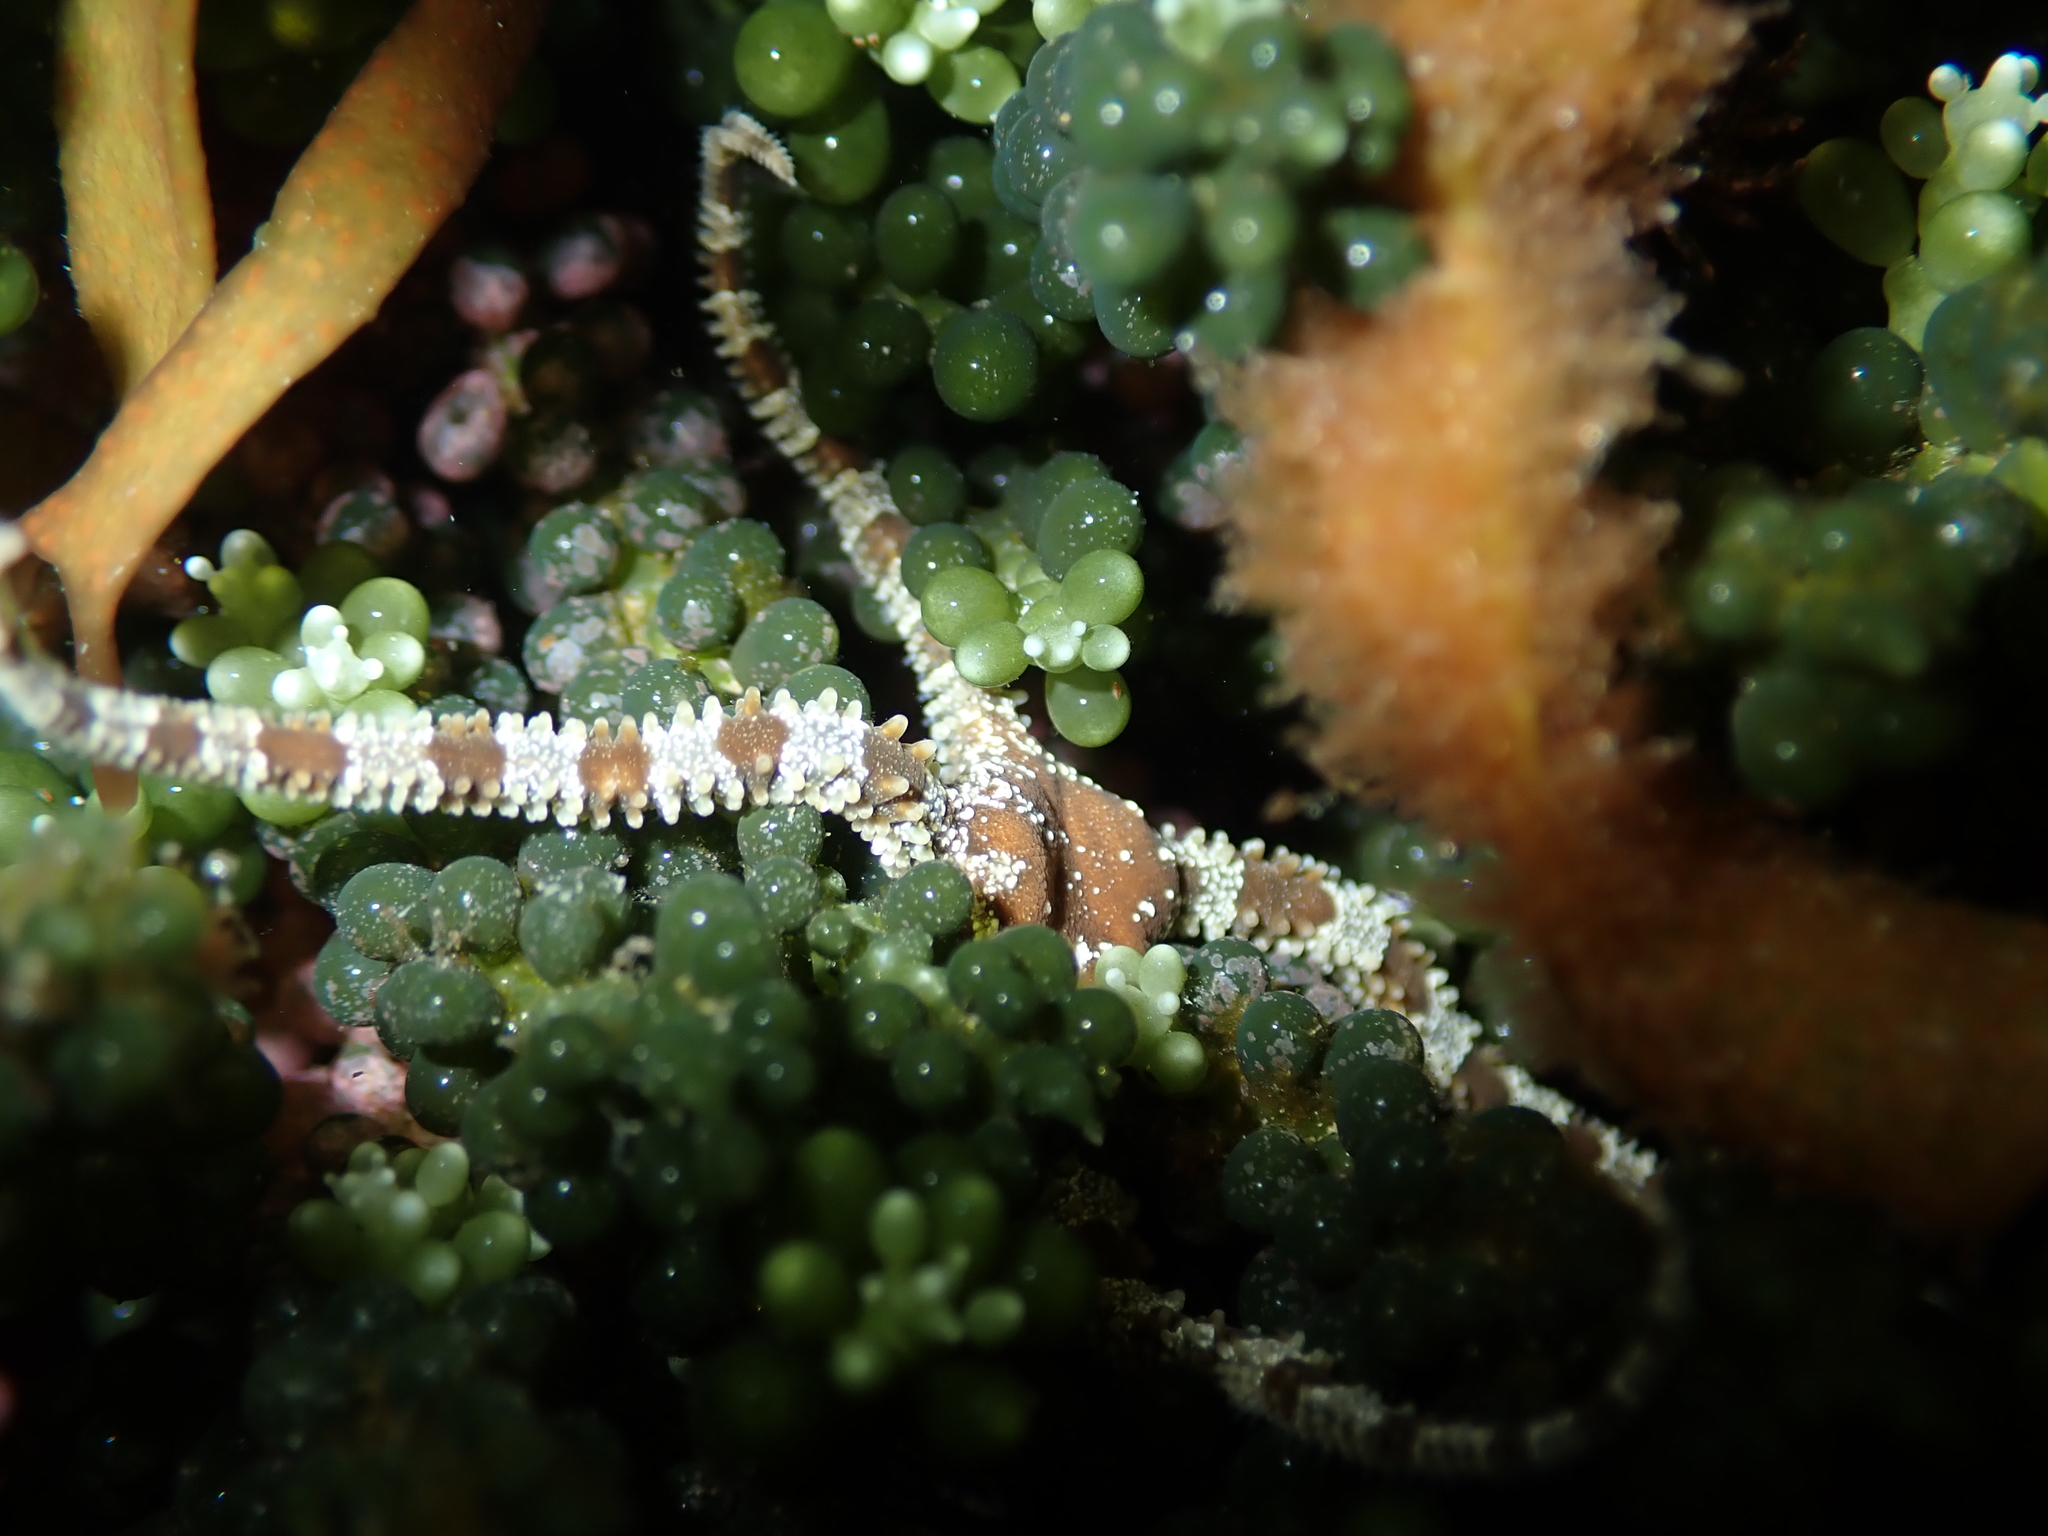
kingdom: Animalia
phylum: Echinodermata
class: Ophiuroidea
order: Ophiacanthida
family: Ophiomyxidae
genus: Ophiomyxa
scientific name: Ophiomyxa brevirima
